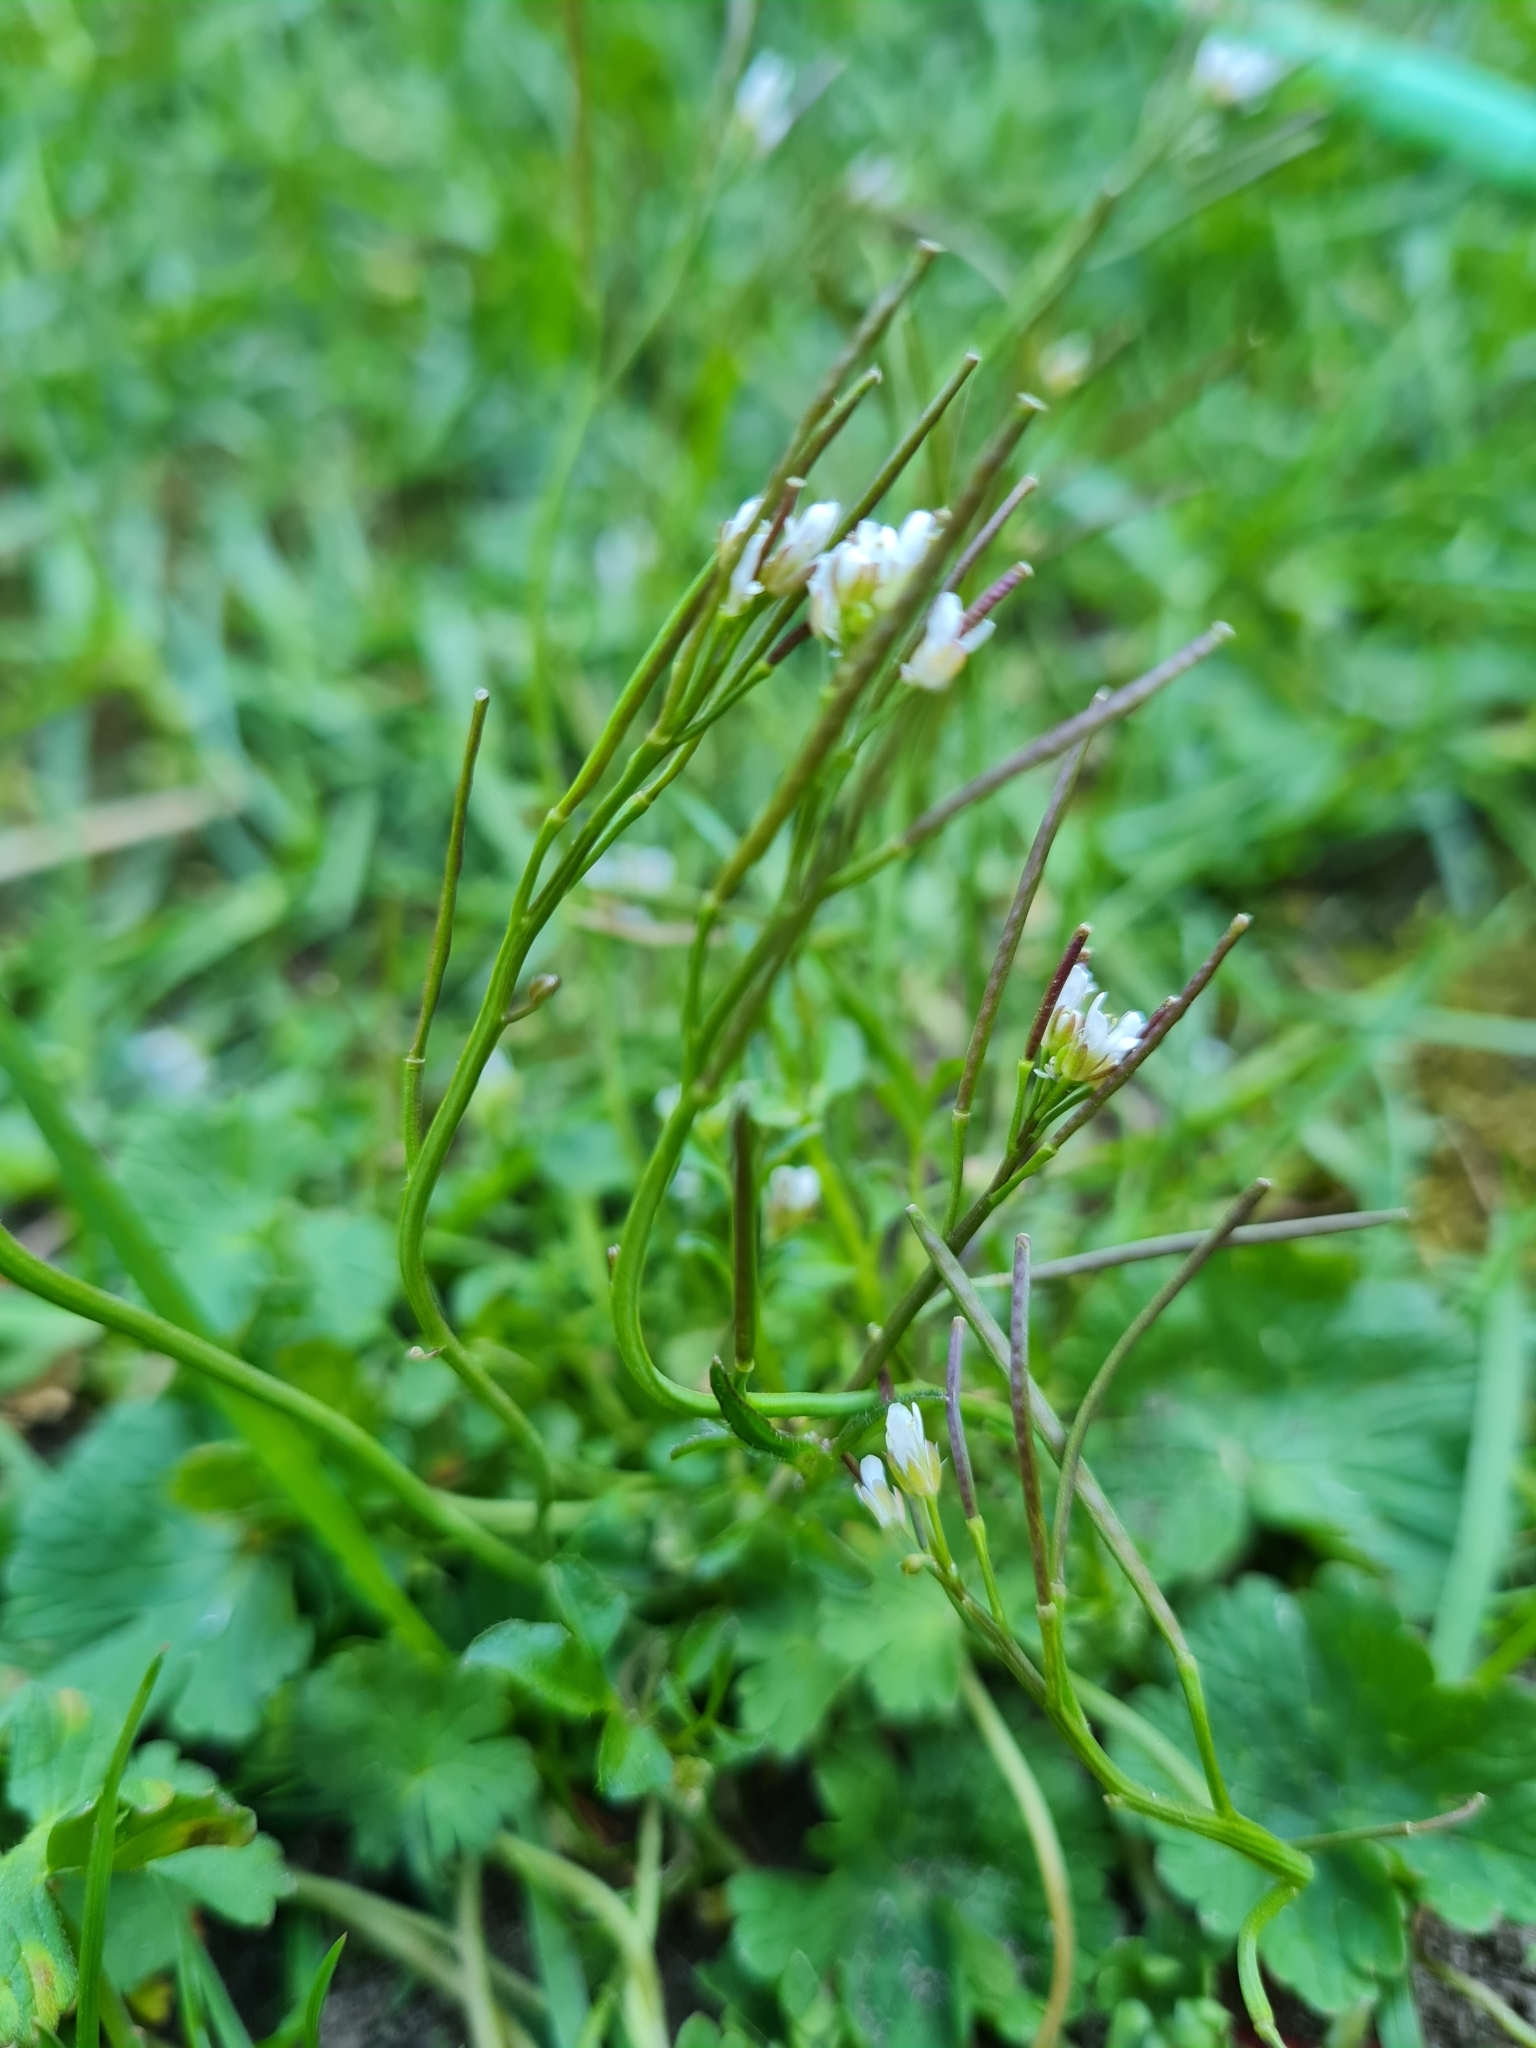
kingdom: Plantae
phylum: Tracheophyta
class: Magnoliopsida
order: Brassicales
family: Brassicaceae
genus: Cardamine
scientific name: Cardamine hirsuta
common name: Hairy bittercress
